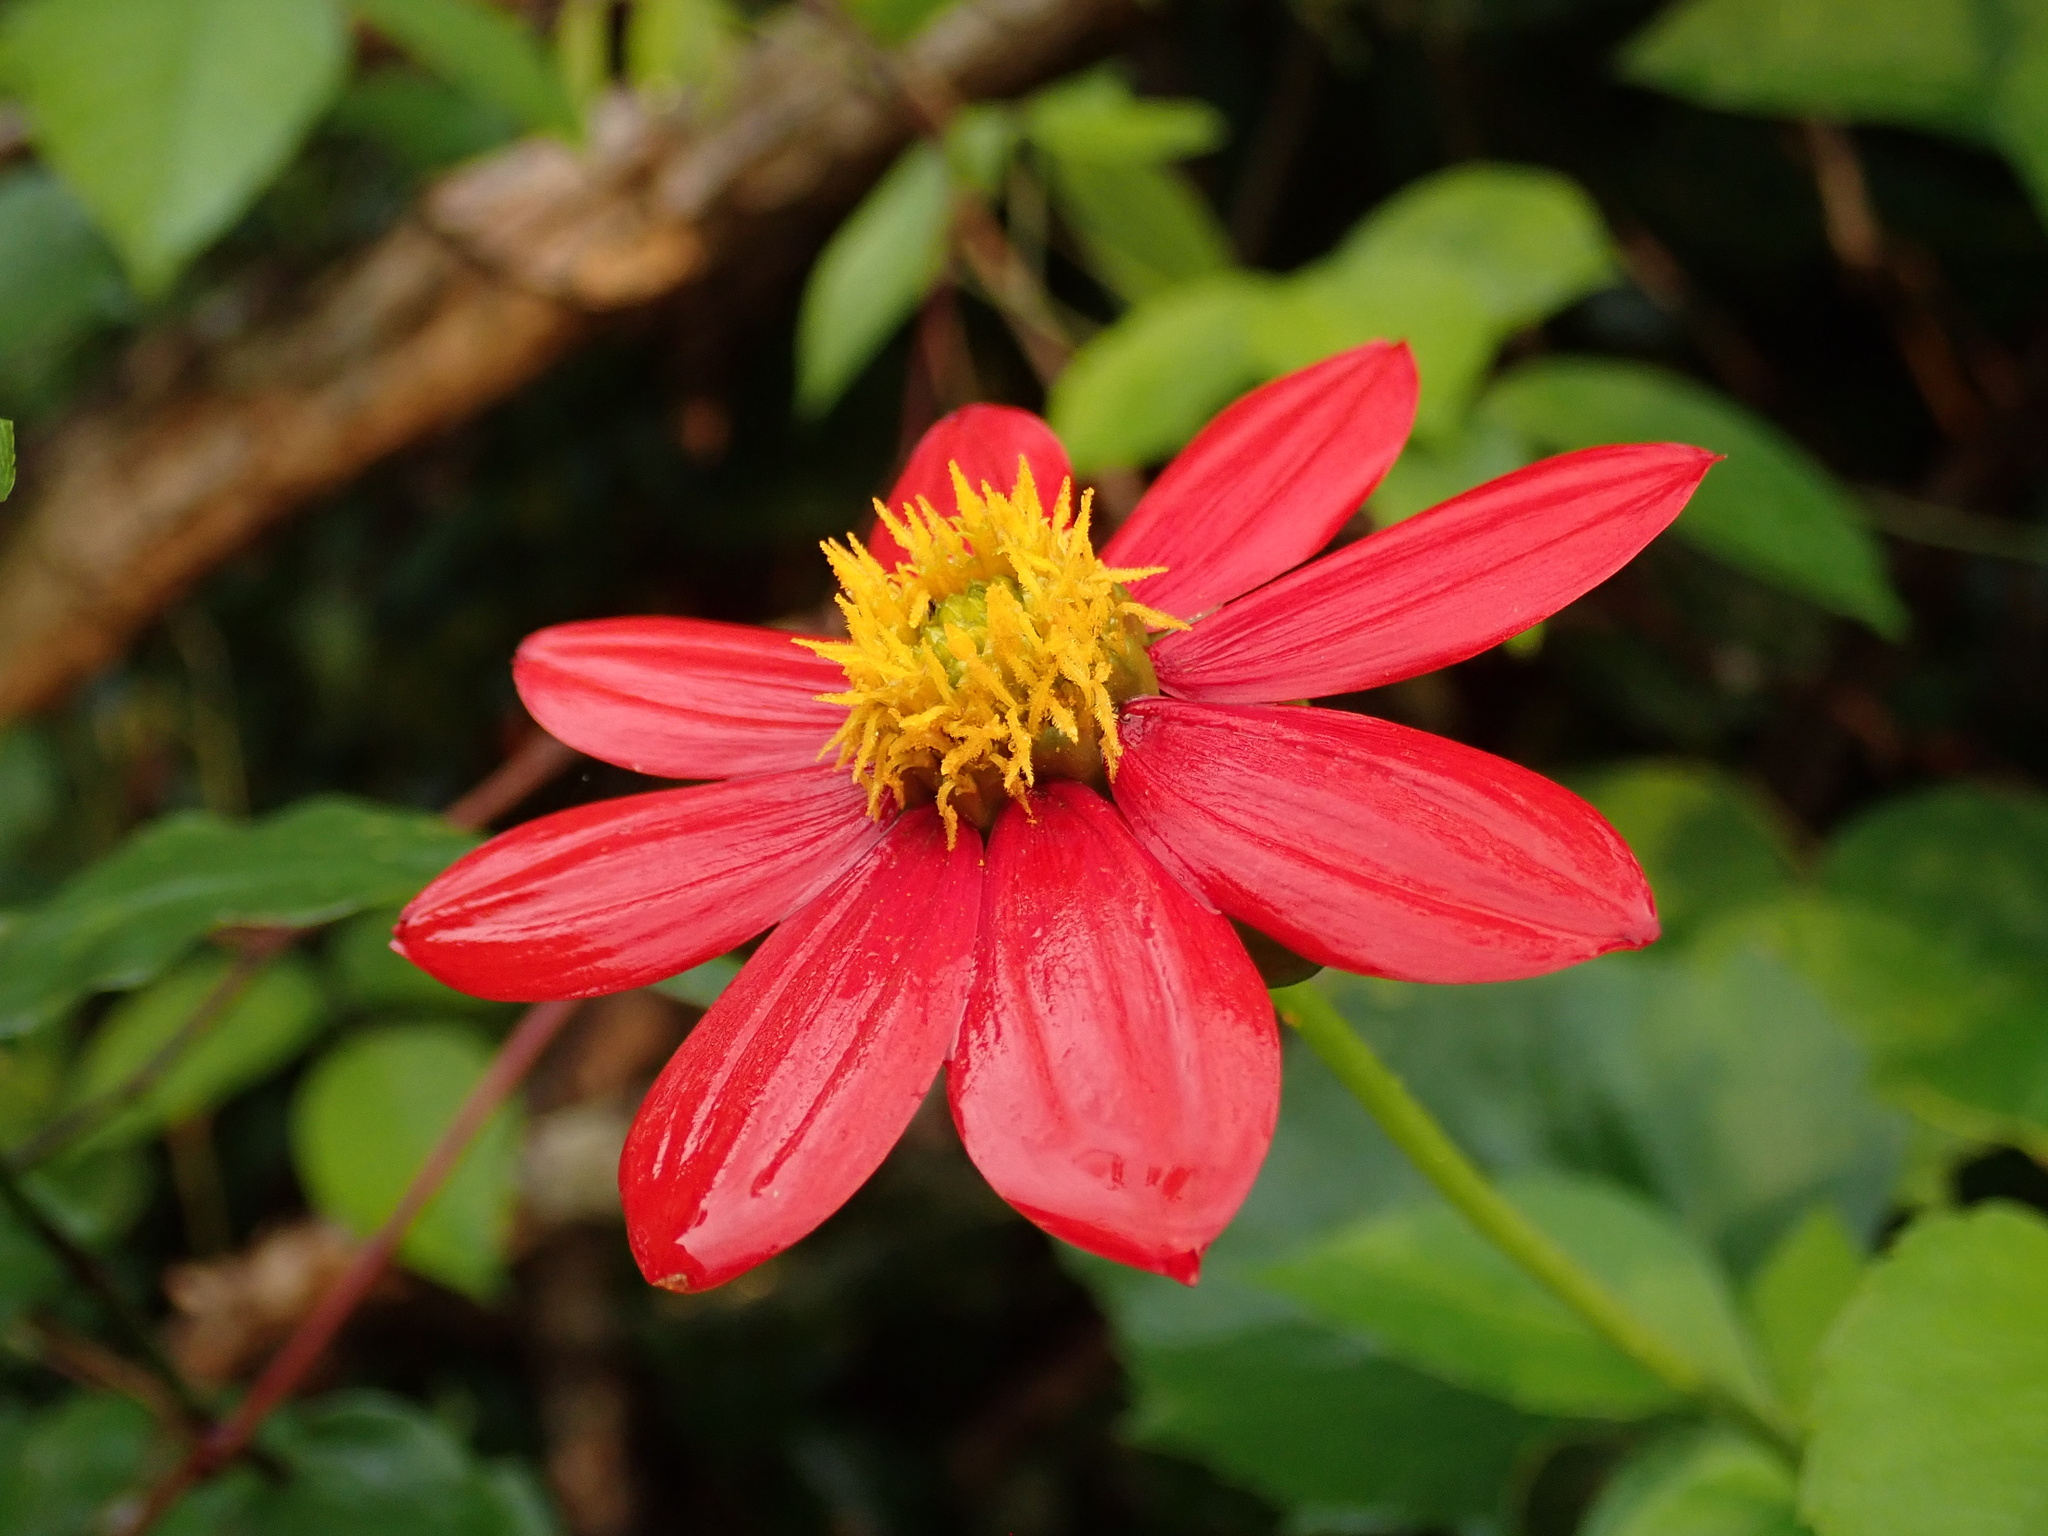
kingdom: Plantae
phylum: Tracheophyta
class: Magnoliopsida
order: Asterales
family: Asteraceae
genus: Dahlia
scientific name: Dahlia coccinea
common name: Red dahlia
